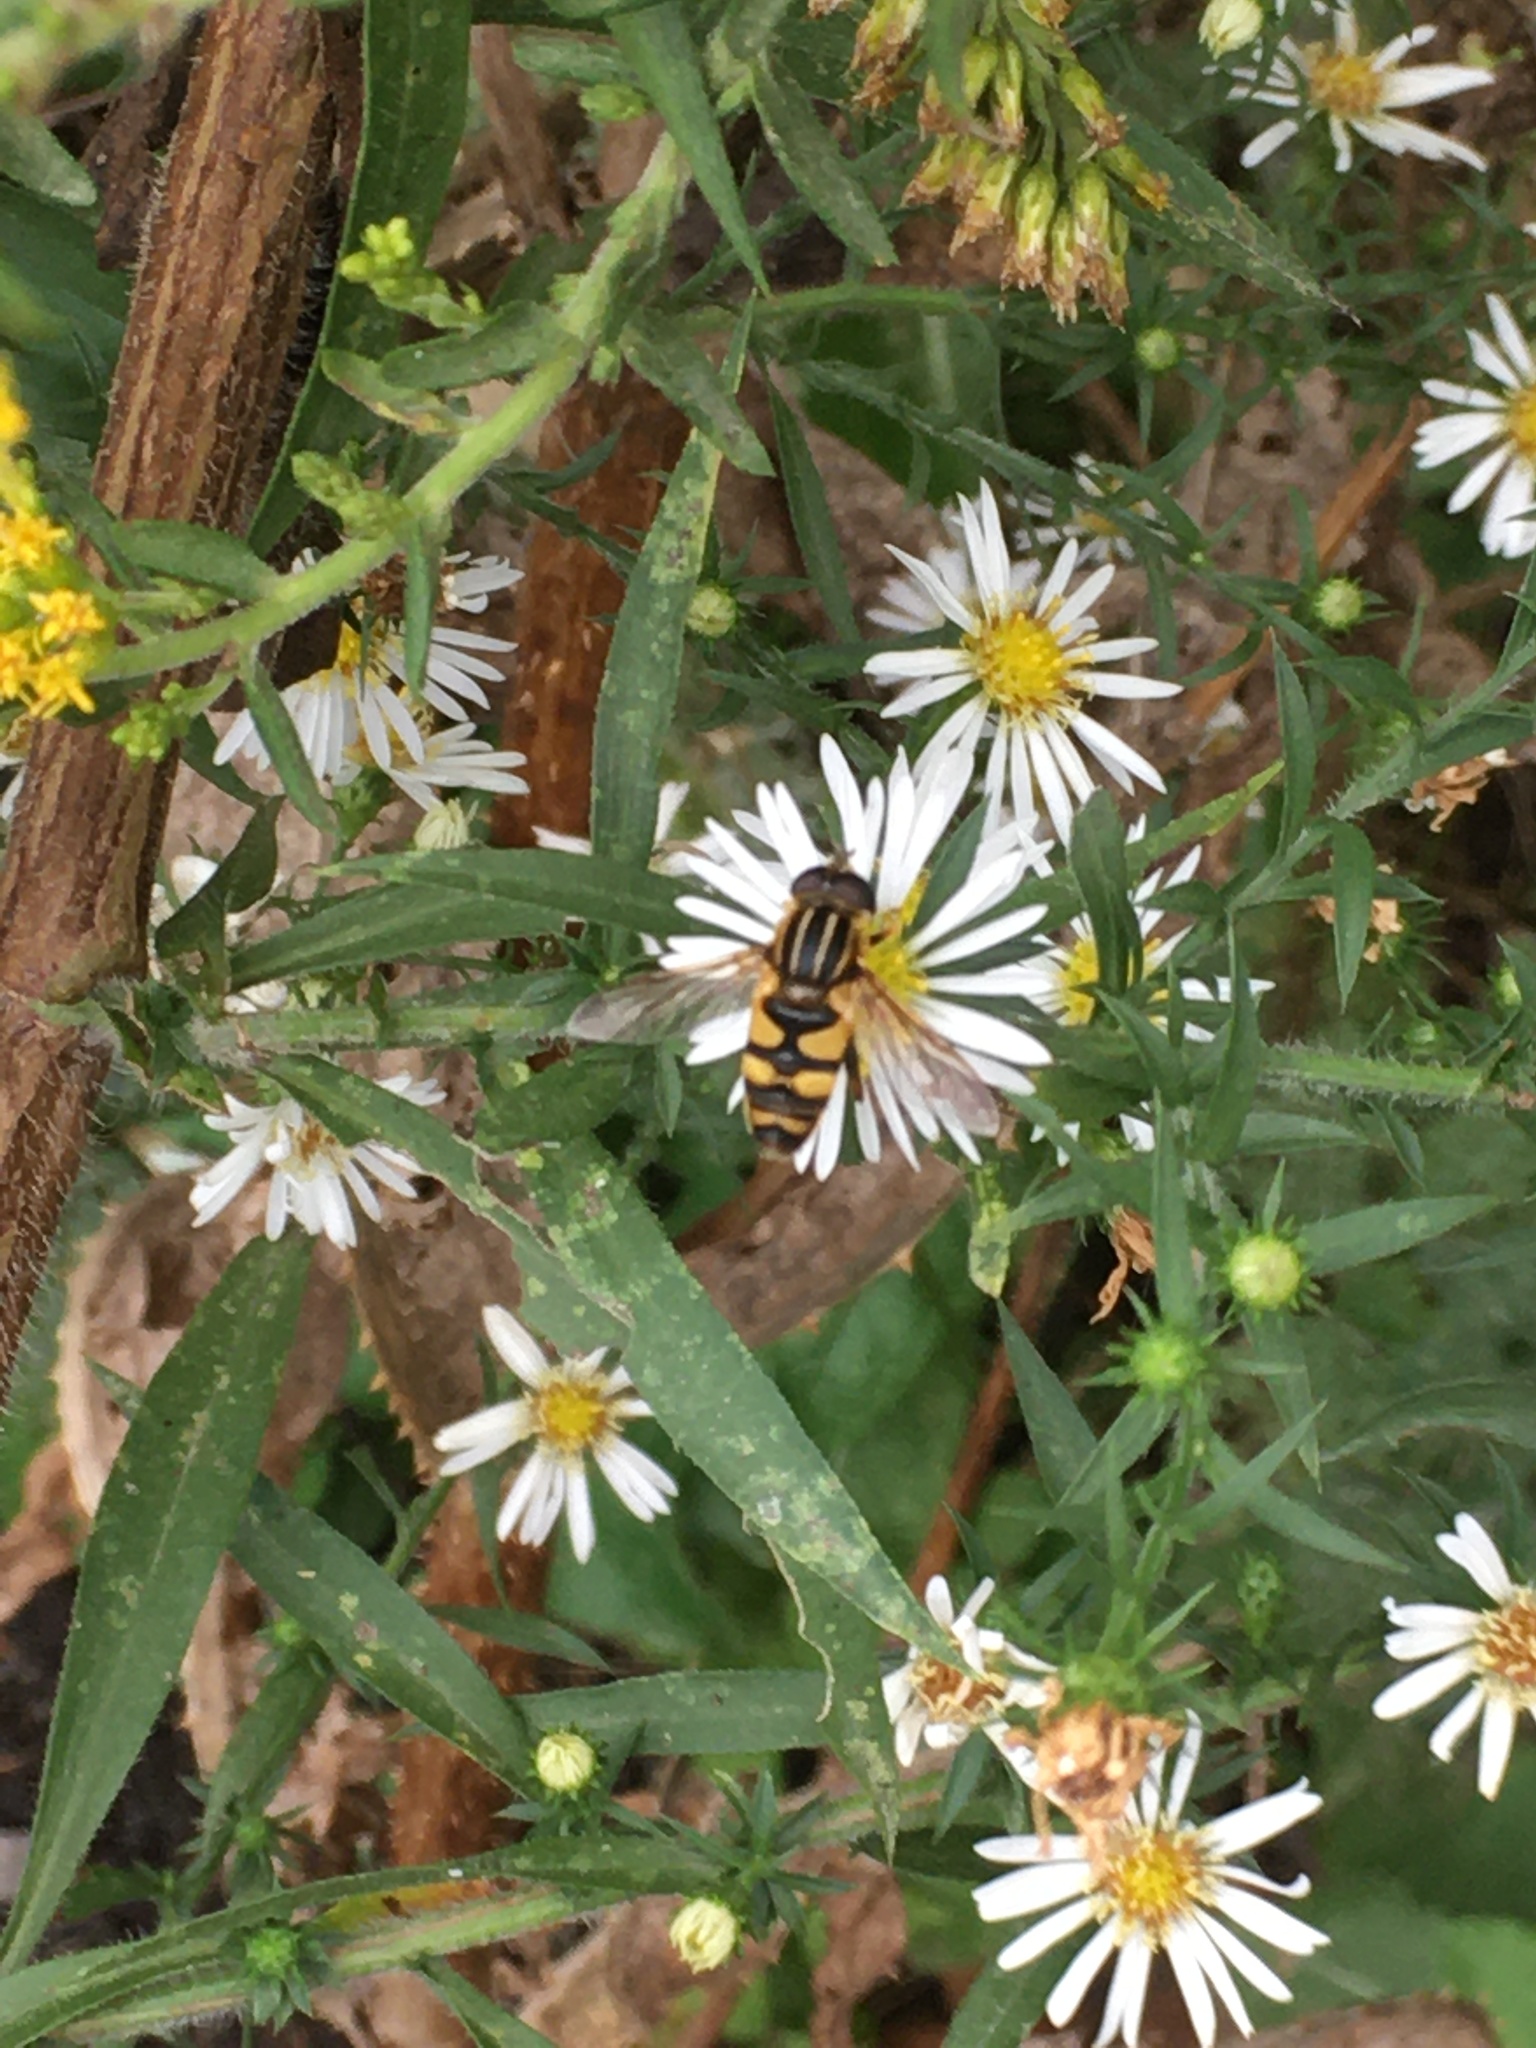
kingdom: Animalia
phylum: Arthropoda
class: Insecta
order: Diptera
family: Syrphidae
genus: Helophilus
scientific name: Helophilus fasciatus
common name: Narrow-headed marsh fly
